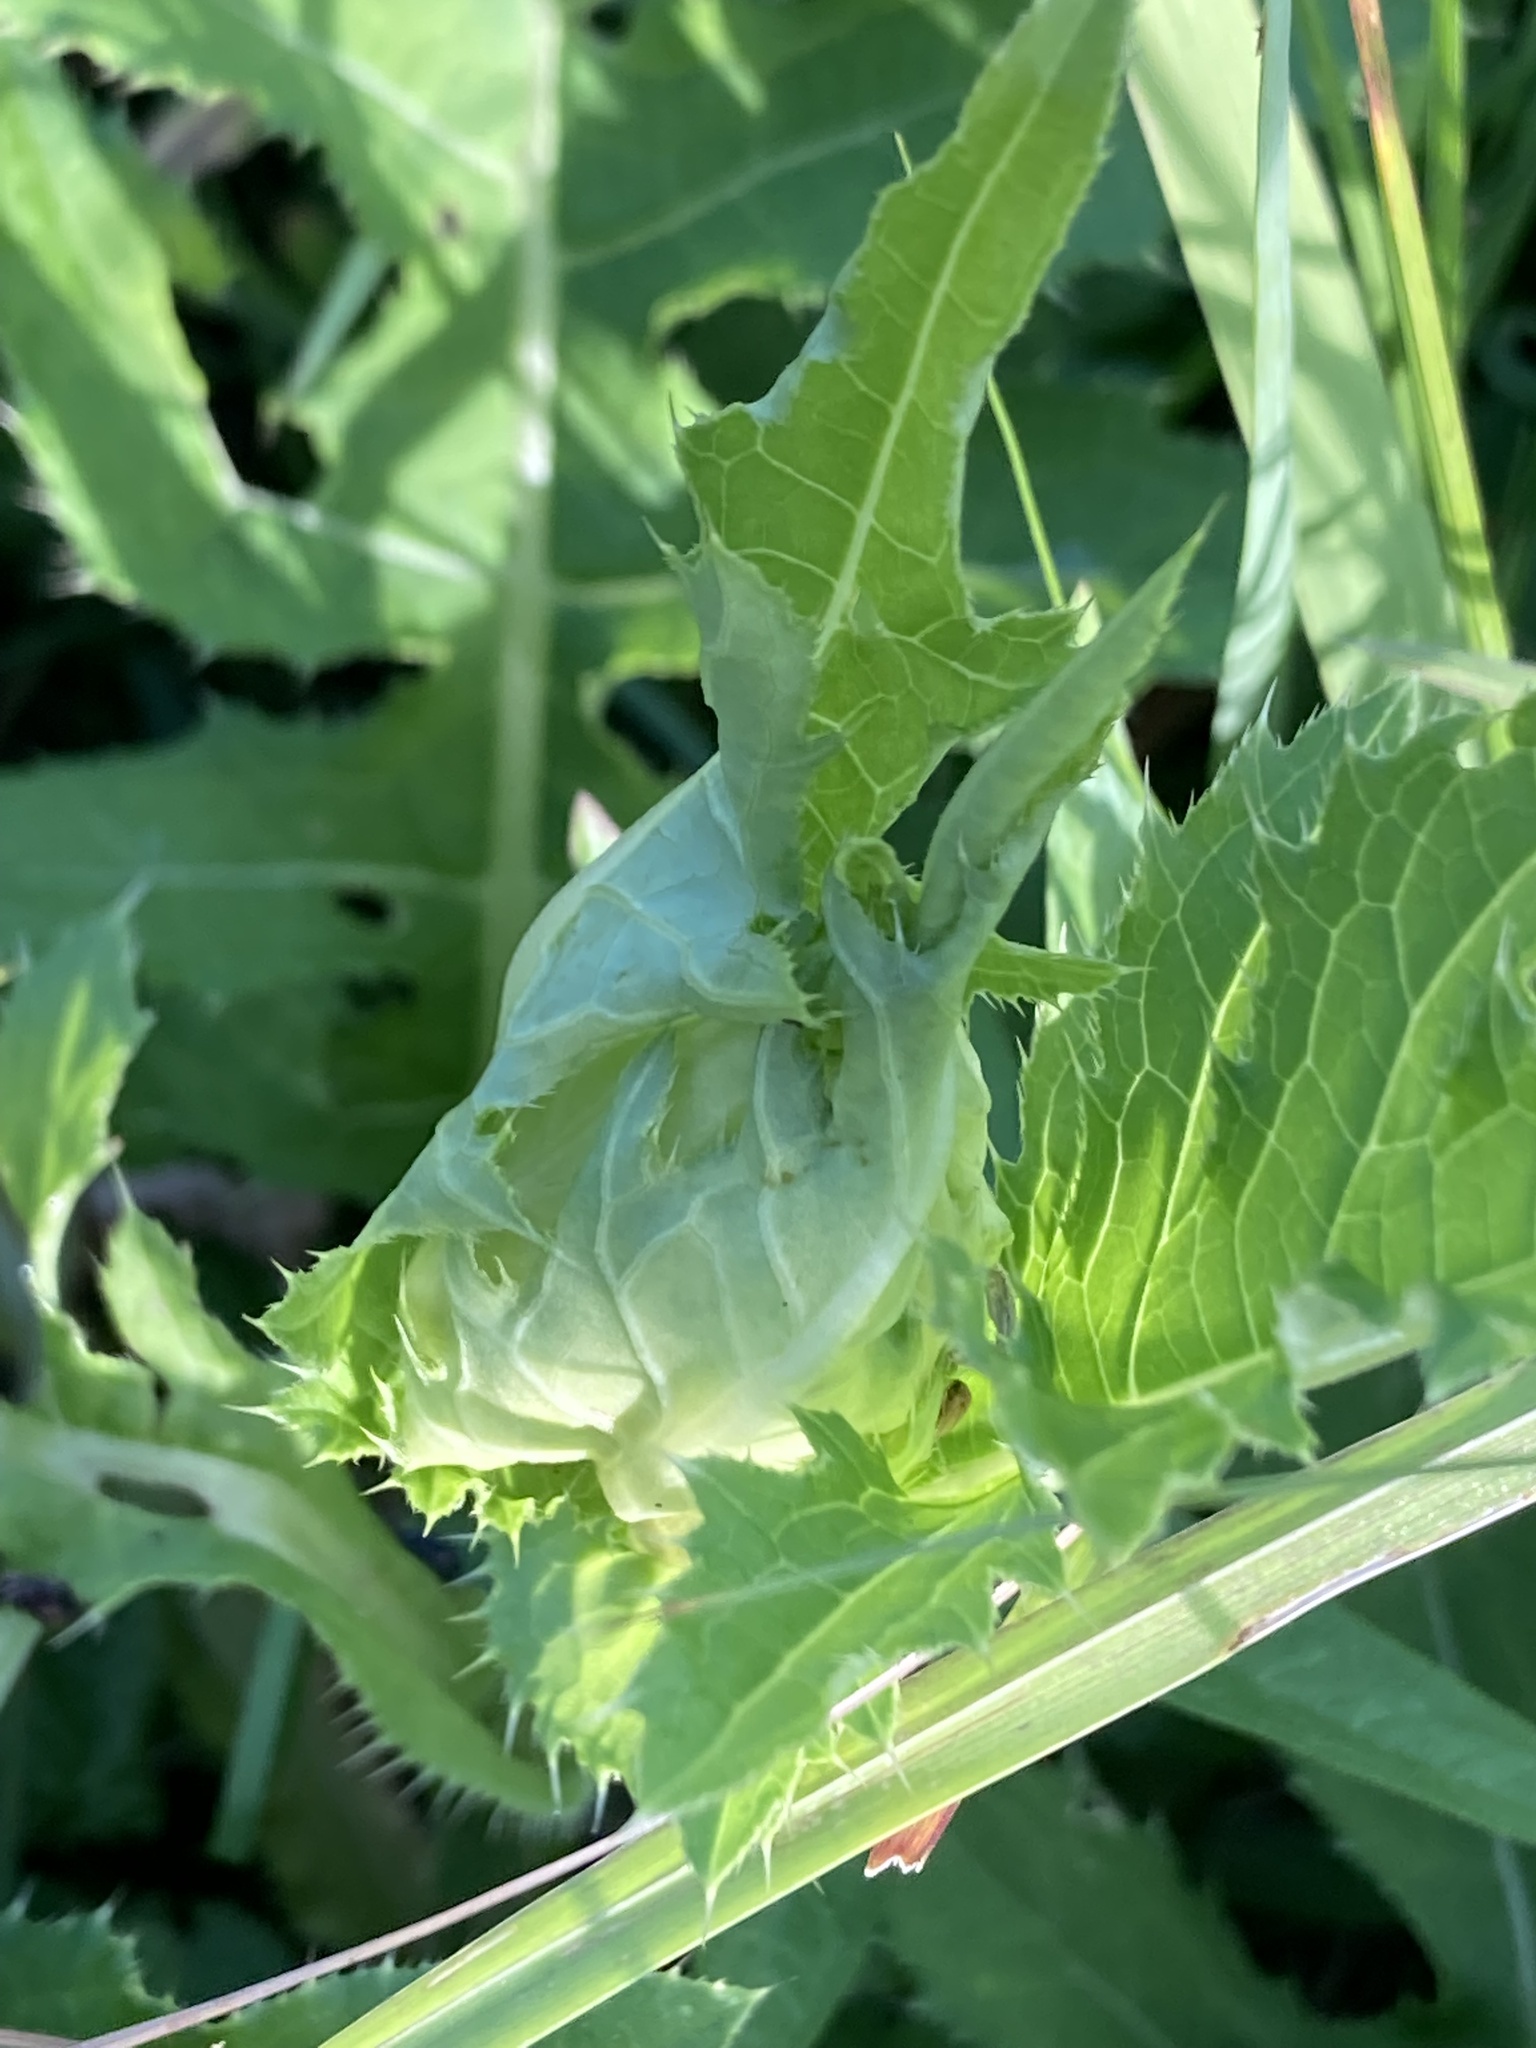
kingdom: Plantae
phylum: Tracheophyta
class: Magnoliopsida
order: Asterales
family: Asteraceae
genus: Cirsium
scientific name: Cirsium oleraceum
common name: Cabbage thistle
